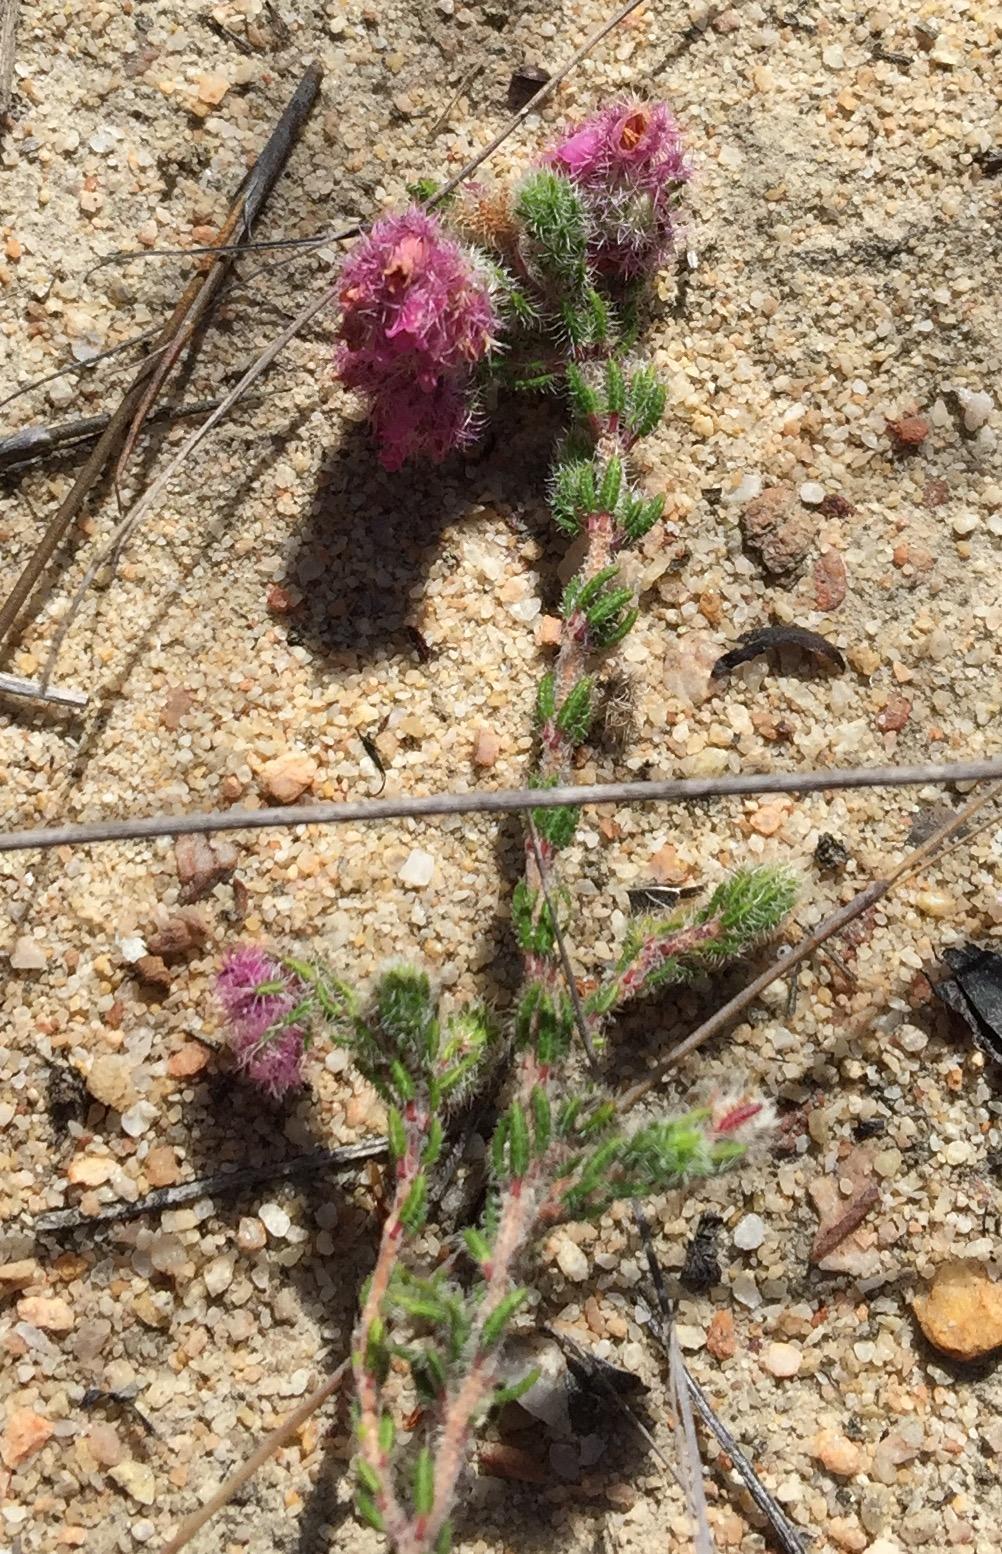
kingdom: Plantae
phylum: Tracheophyta
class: Magnoliopsida
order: Ericales
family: Ericaceae
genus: Erica
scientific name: Erica solandra
